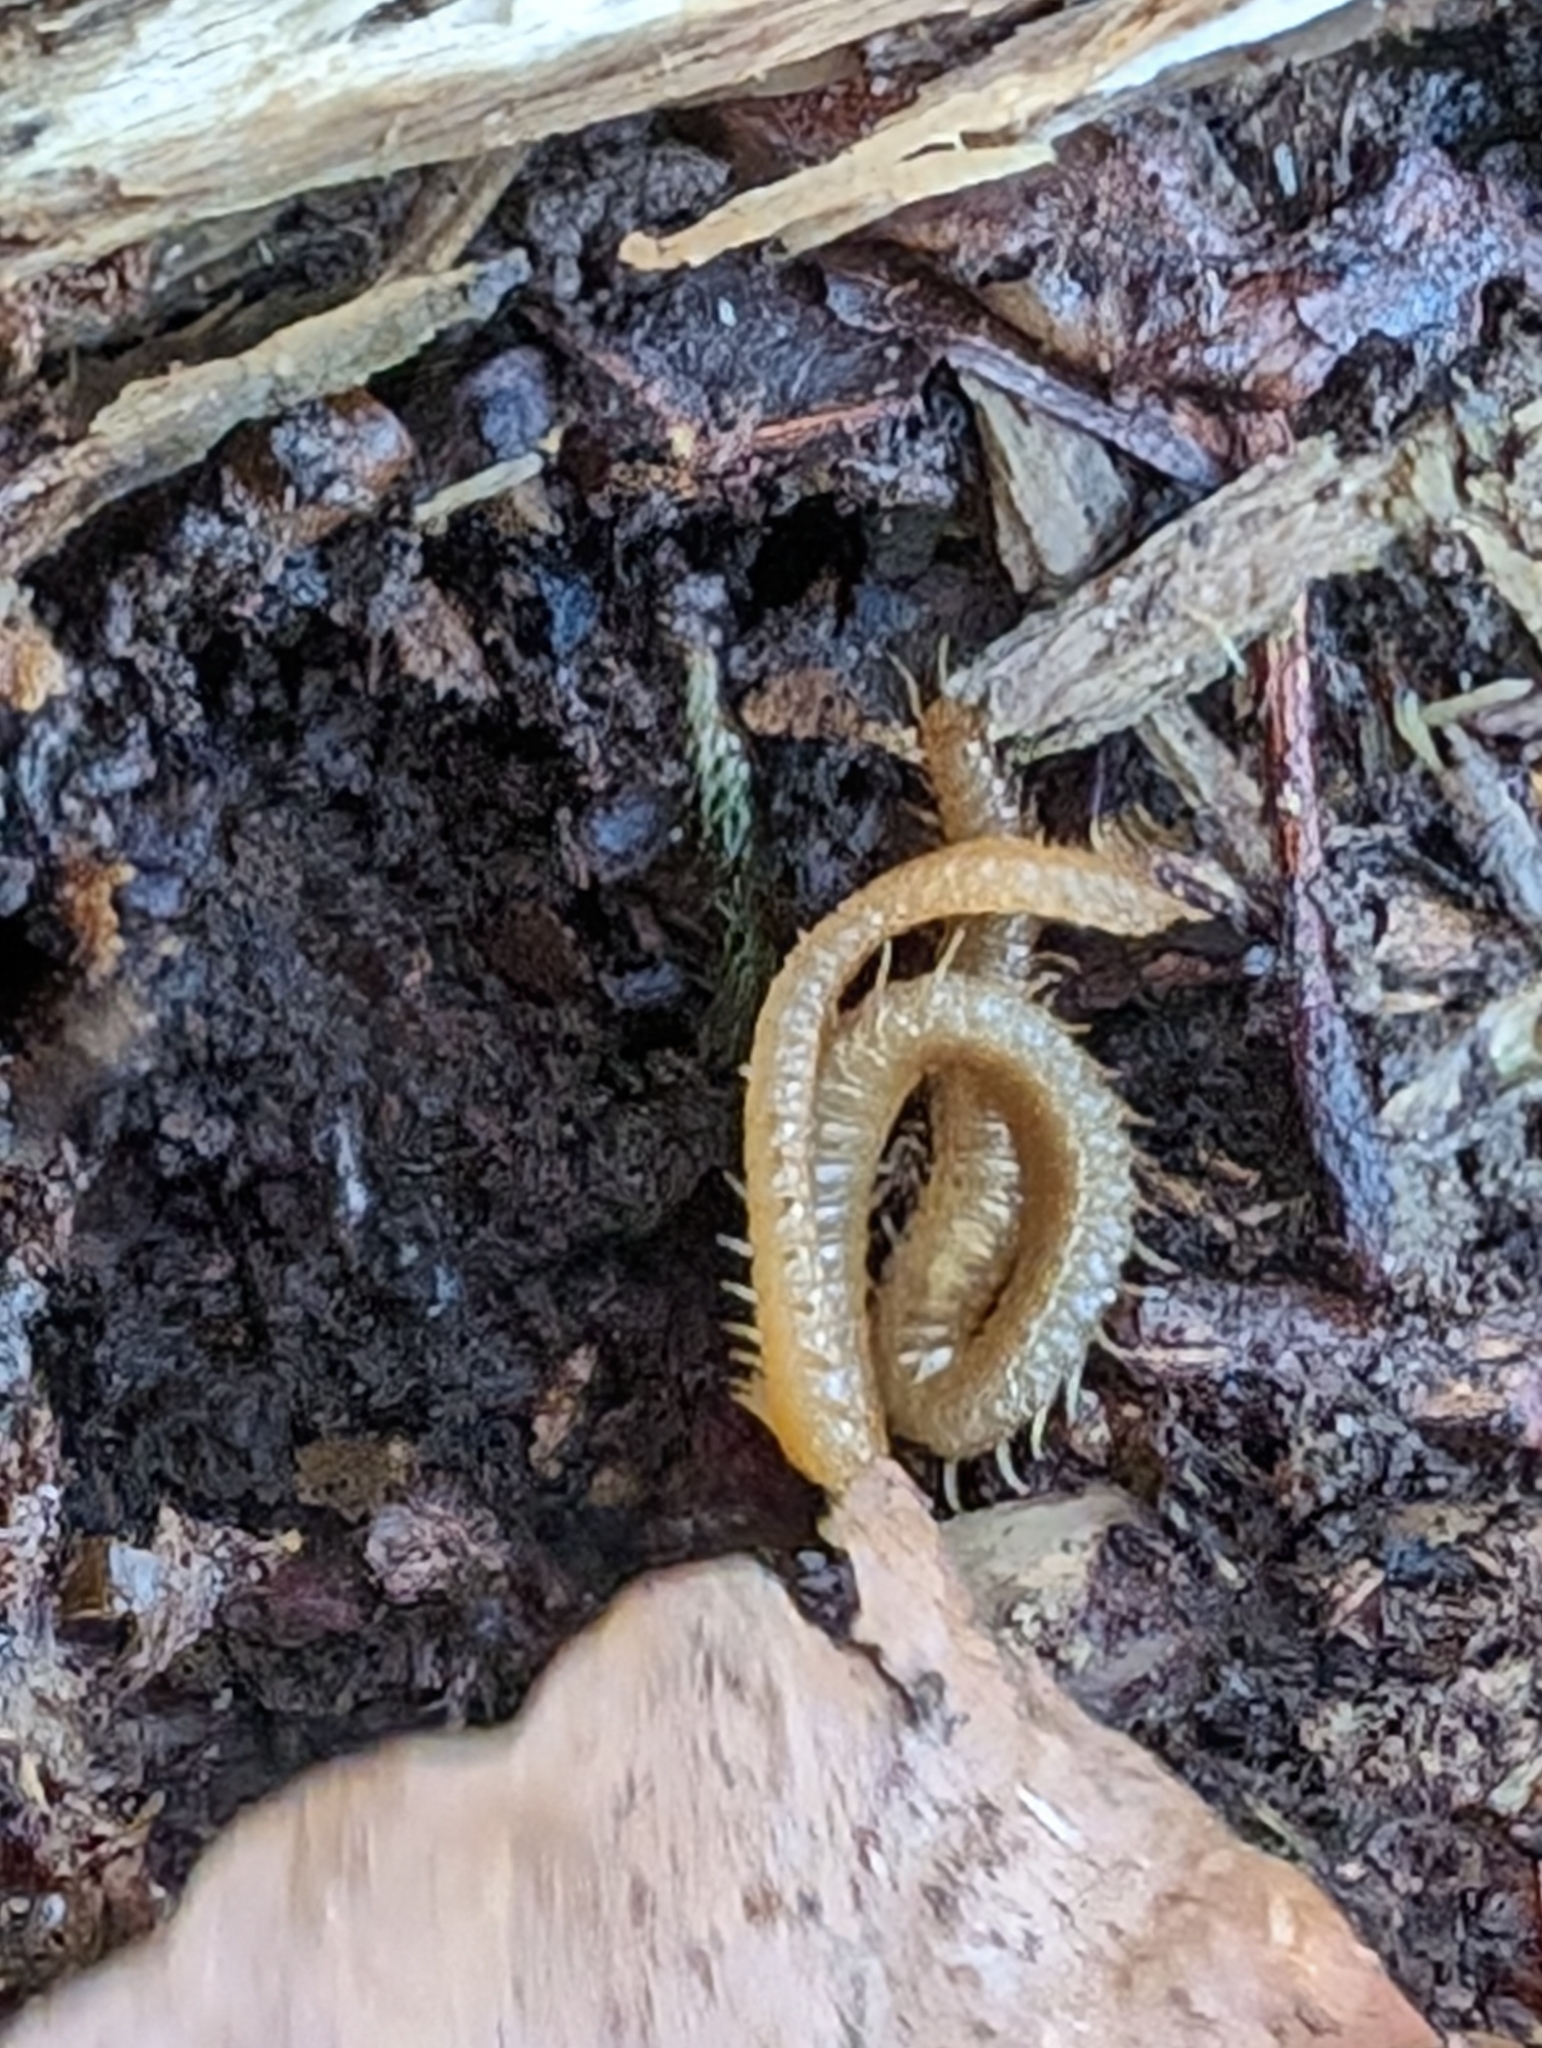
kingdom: Animalia
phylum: Arthropoda
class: Chilopoda
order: Geophilomorpha
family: Himantariidae
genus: Stigmatogaster
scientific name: Stigmatogaster subterranea
